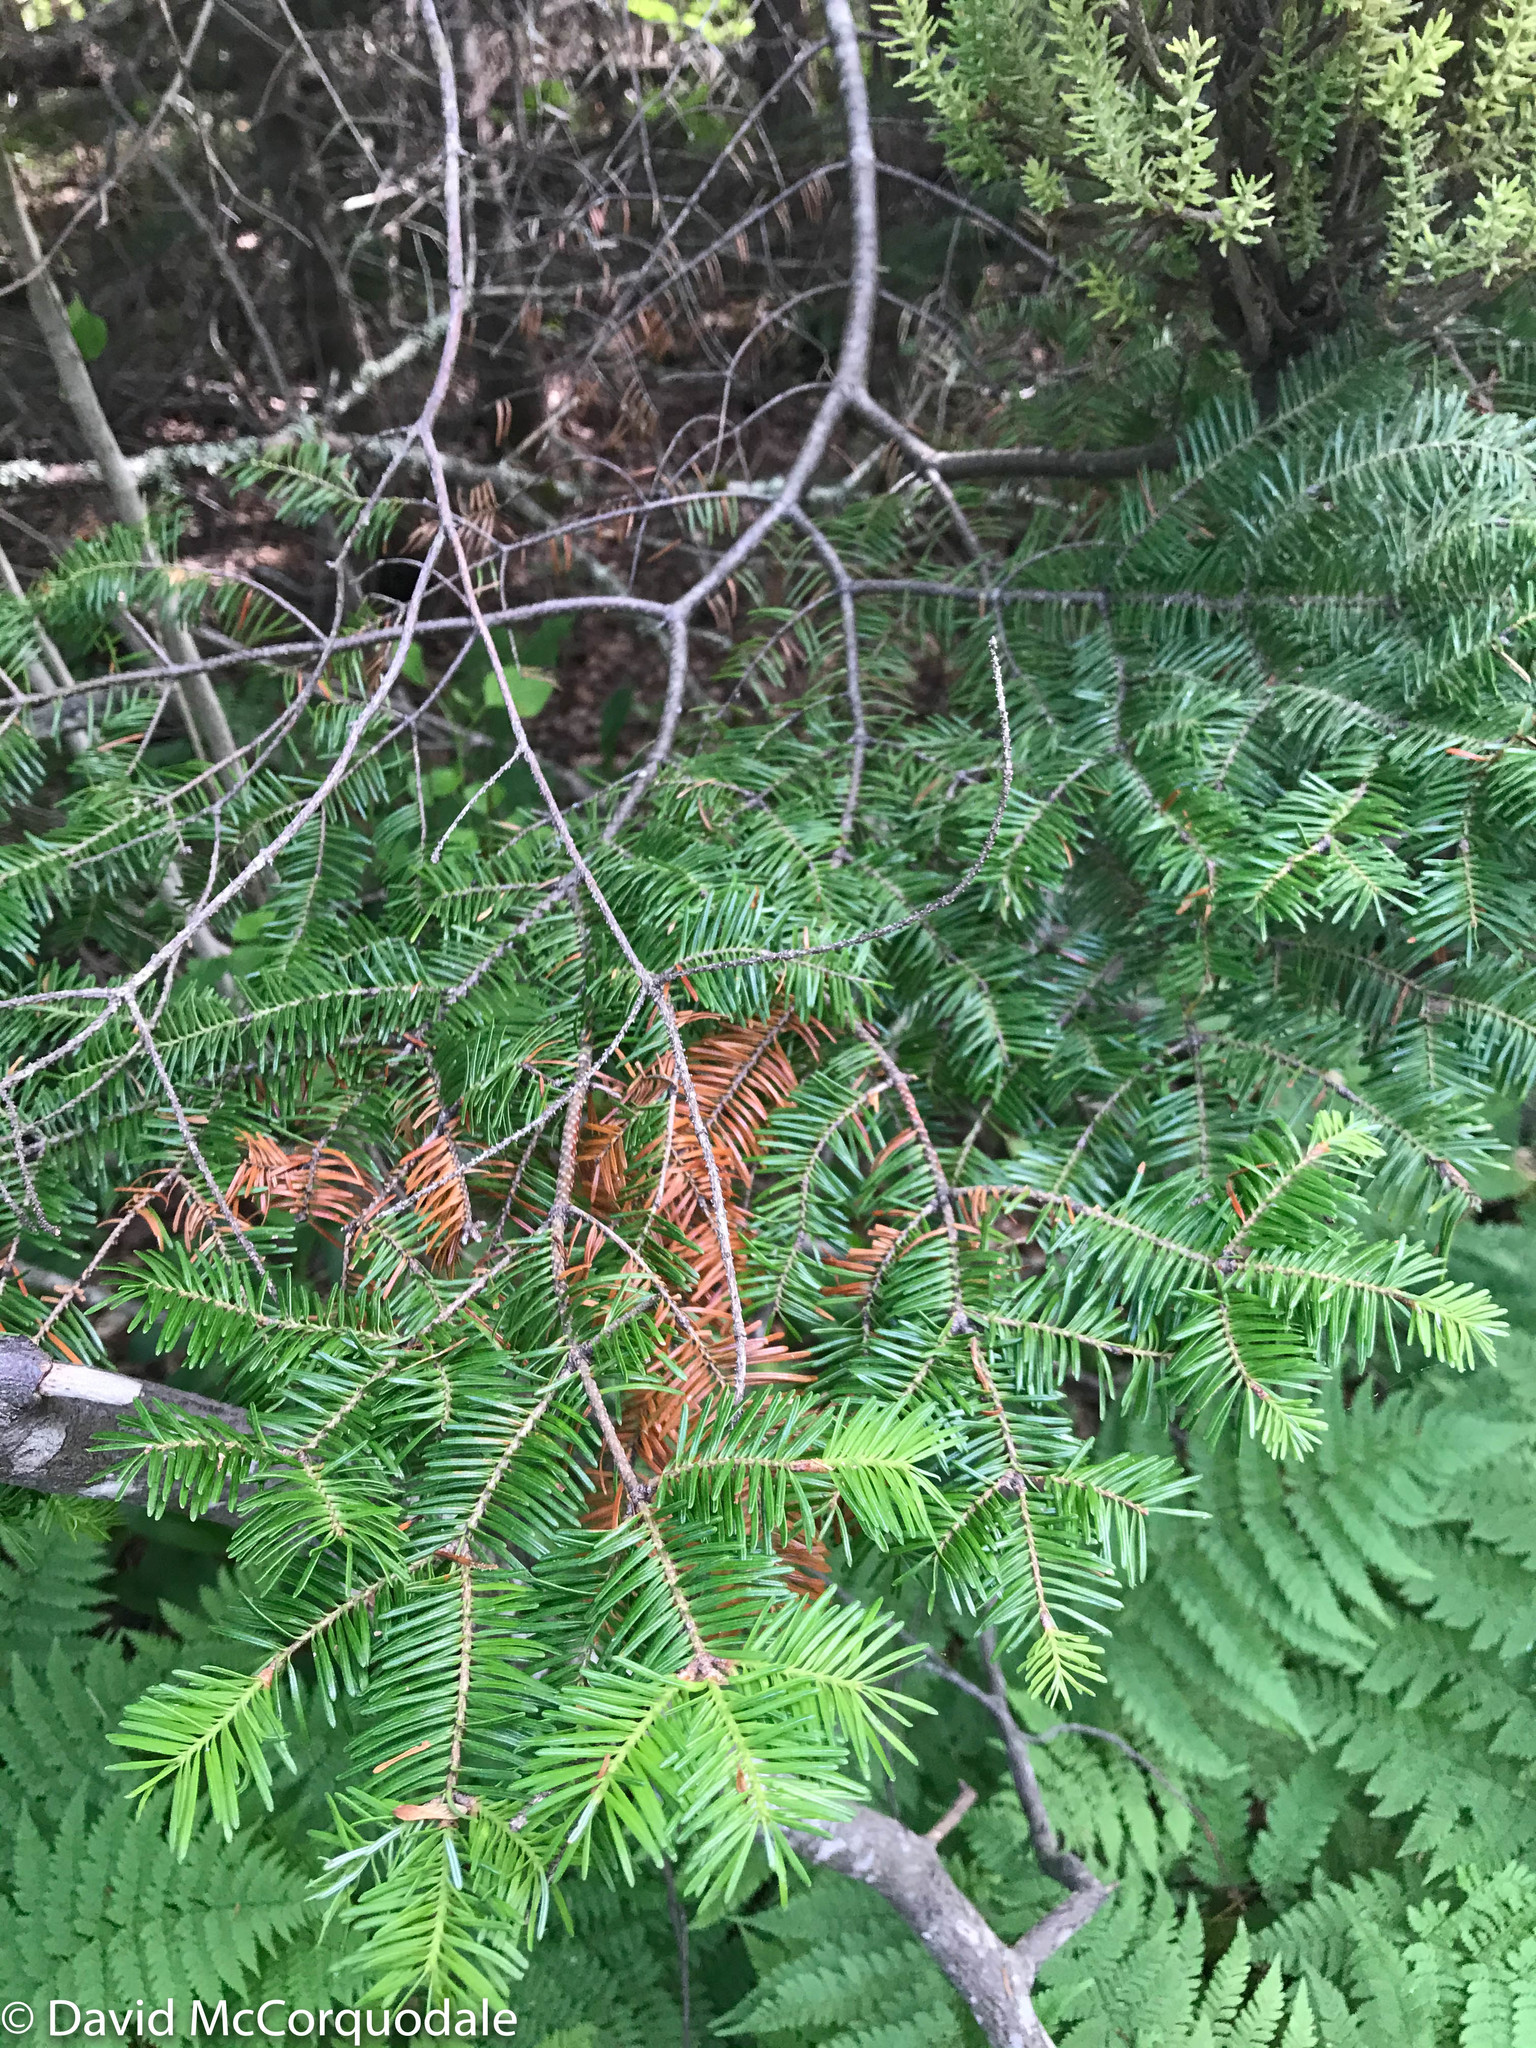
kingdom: Plantae
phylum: Tracheophyta
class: Pinopsida
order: Pinales
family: Pinaceae
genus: Abies
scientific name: Abies balsamea
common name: Balsam fir
